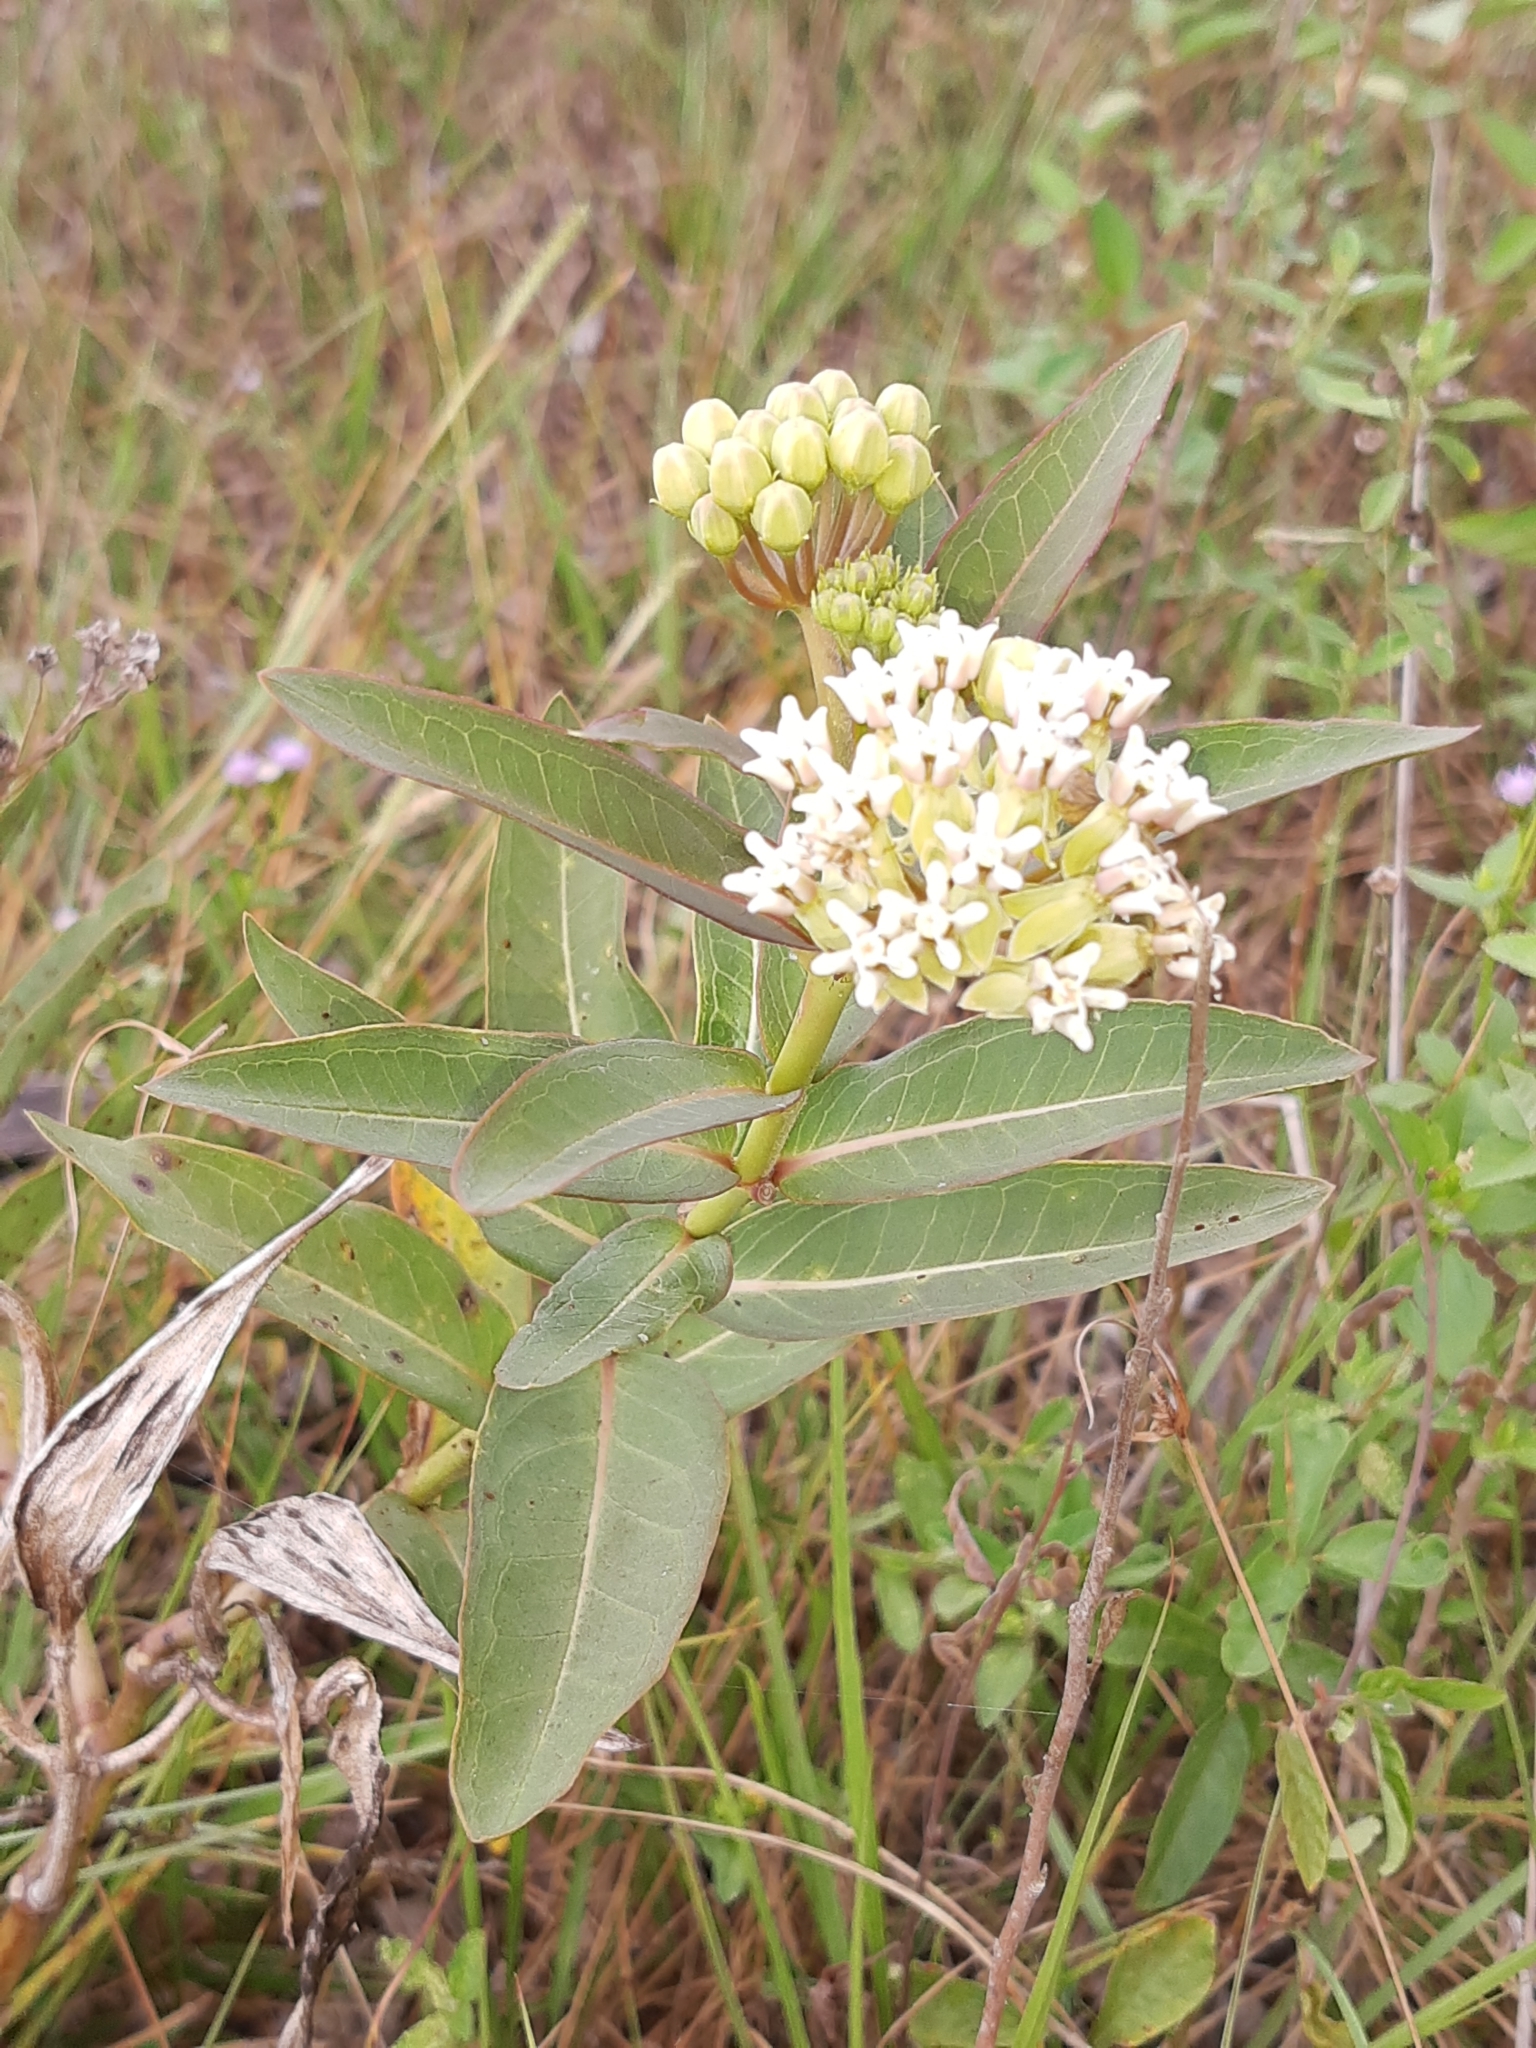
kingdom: Plantae
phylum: Tracheophyta
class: Magnoliopsida
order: Gentianales
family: Apocynaceae
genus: Asclepias
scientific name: Asclepias mellodora
